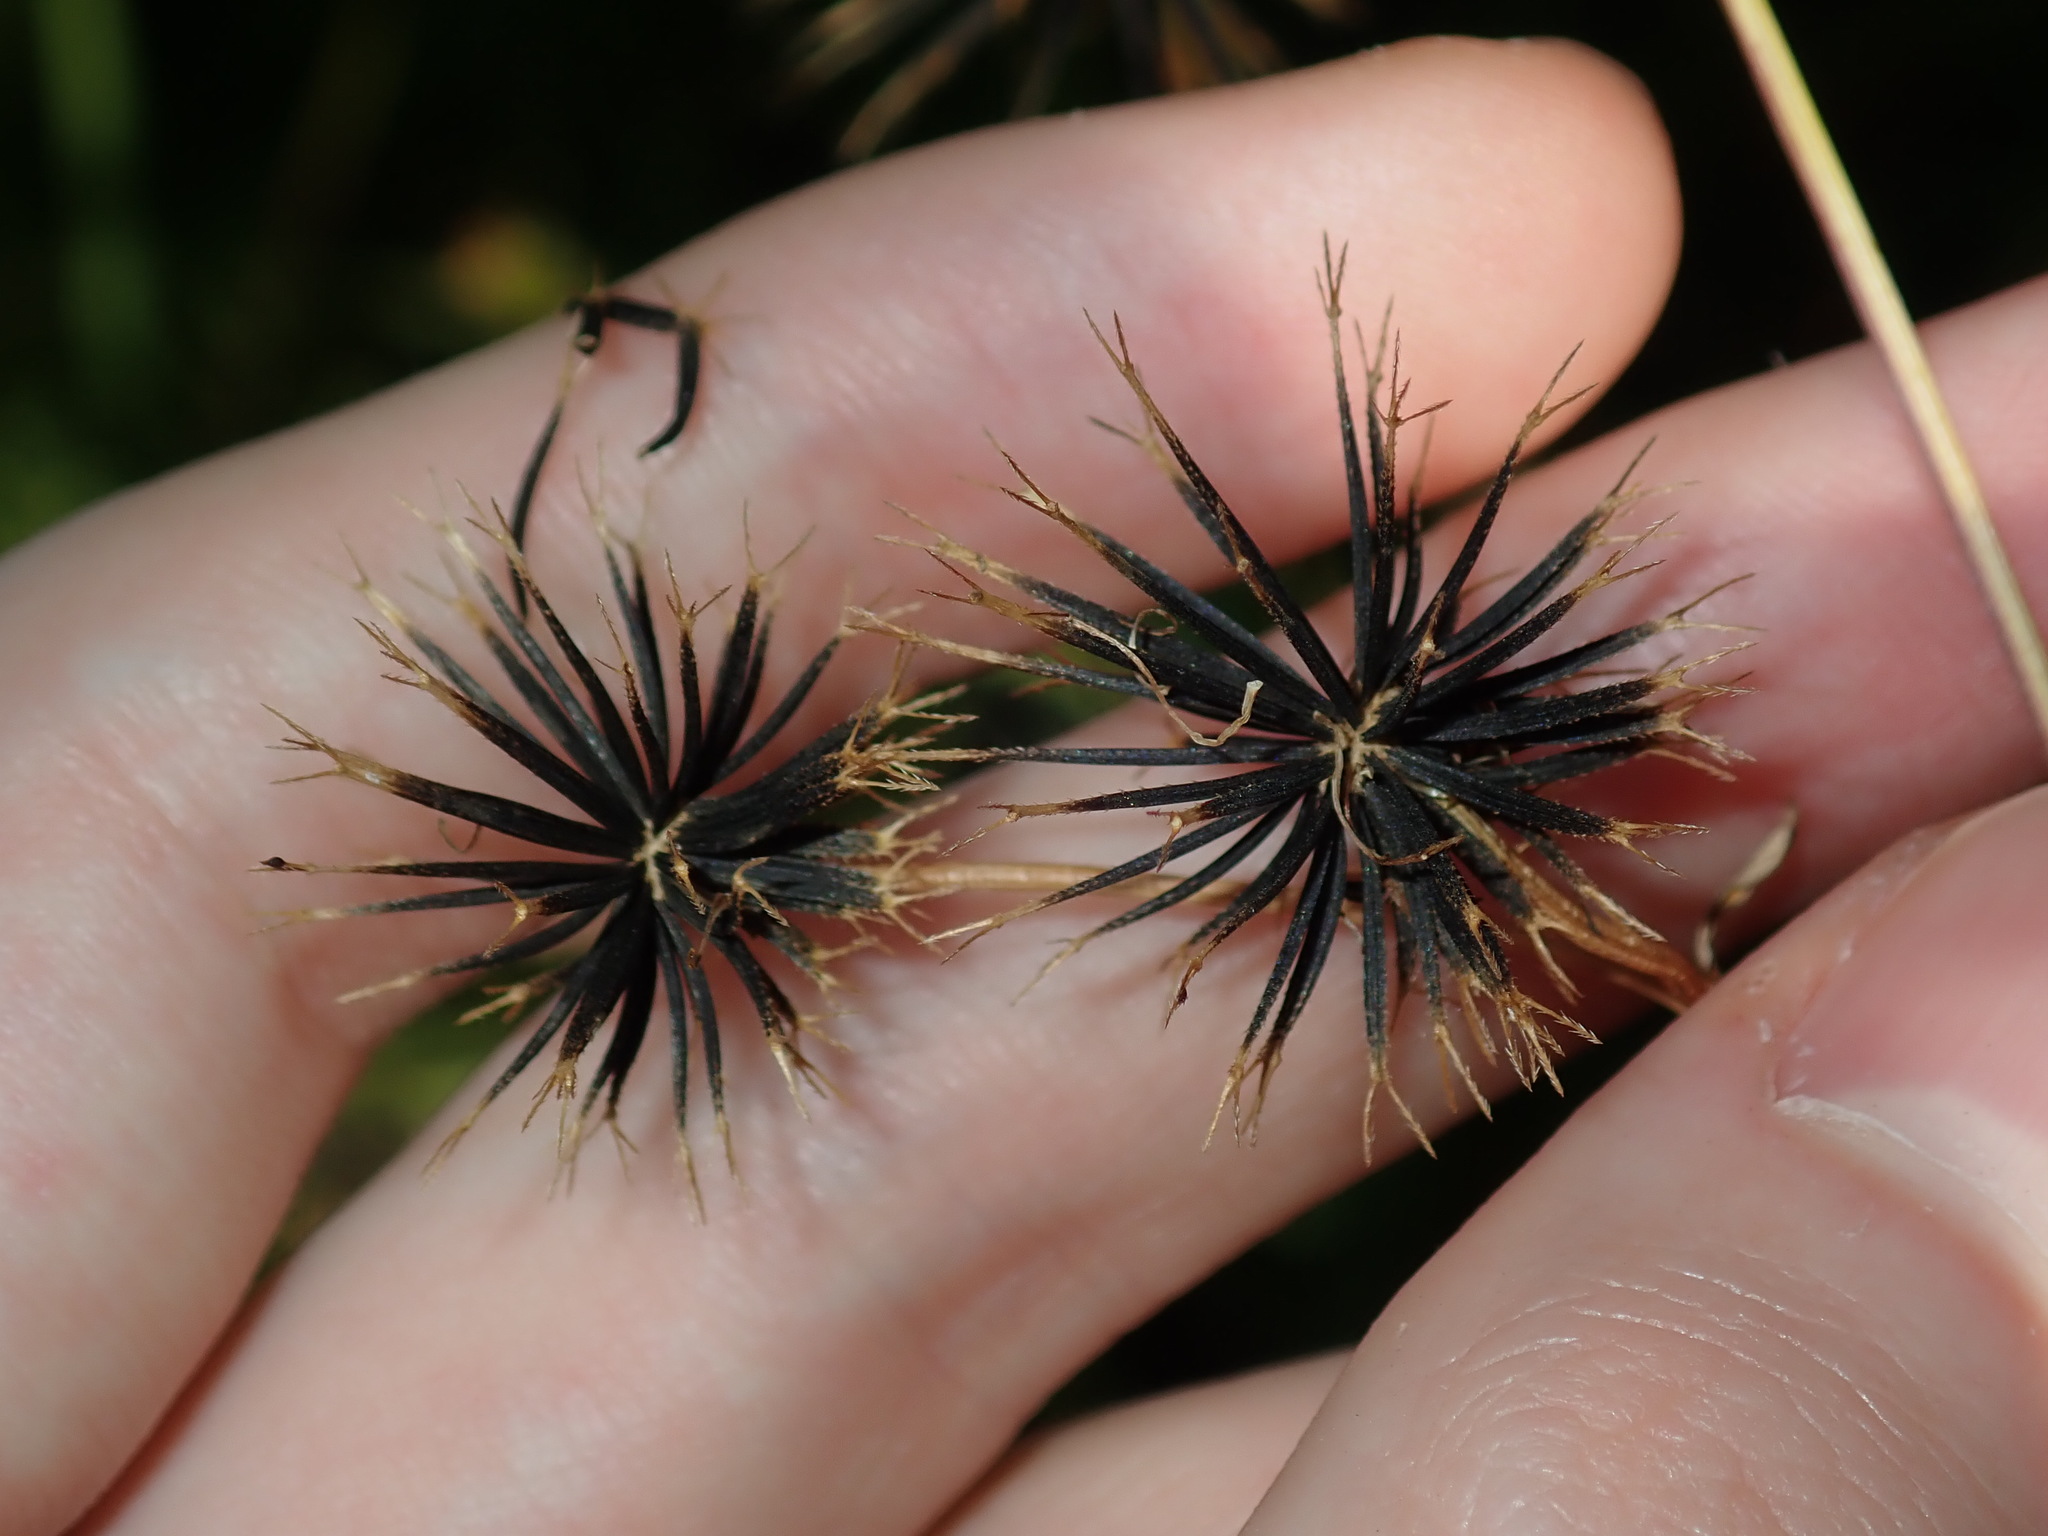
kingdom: Plantae
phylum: Tracheophyta
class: Magnoliopsida
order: Asterales
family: Asteraceae
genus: Bidens
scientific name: Bidens pilosa
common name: Black-jack
